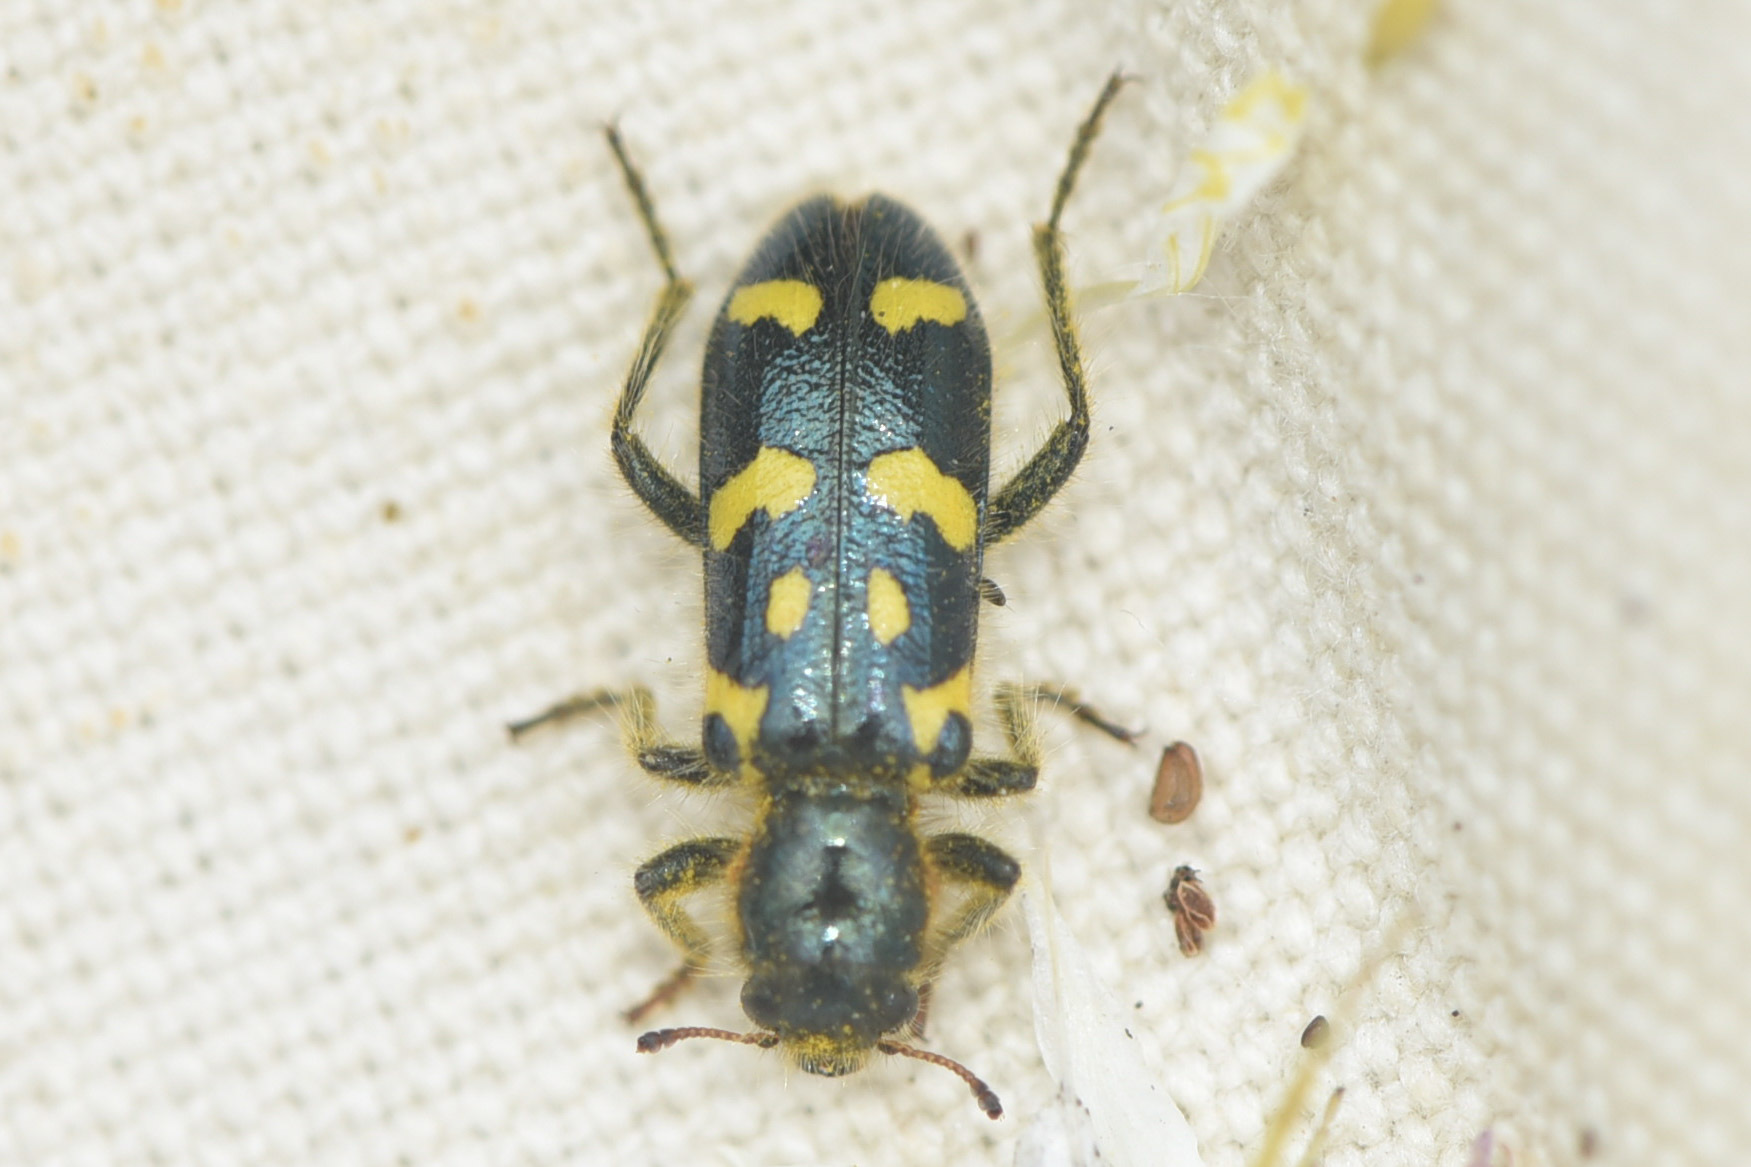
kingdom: Animalia
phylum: Arthropoda
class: Insecta
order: Coleoptera
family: Cleridae
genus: Trichodes
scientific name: Trichodes ornatus
